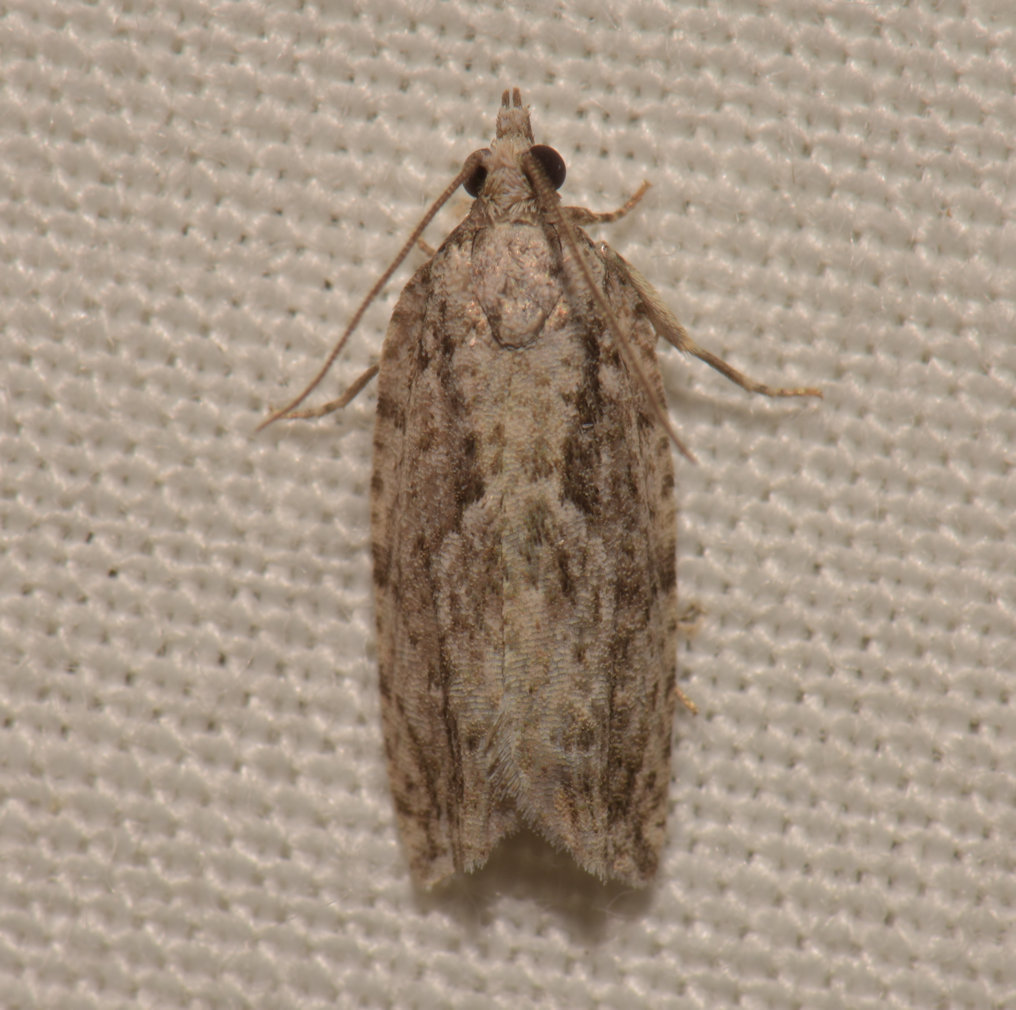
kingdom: Animalia
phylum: Arthropoda
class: Insecta
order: Lepidoptera
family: Tortricidae
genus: Epinotia
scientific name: Epinotia nonana
